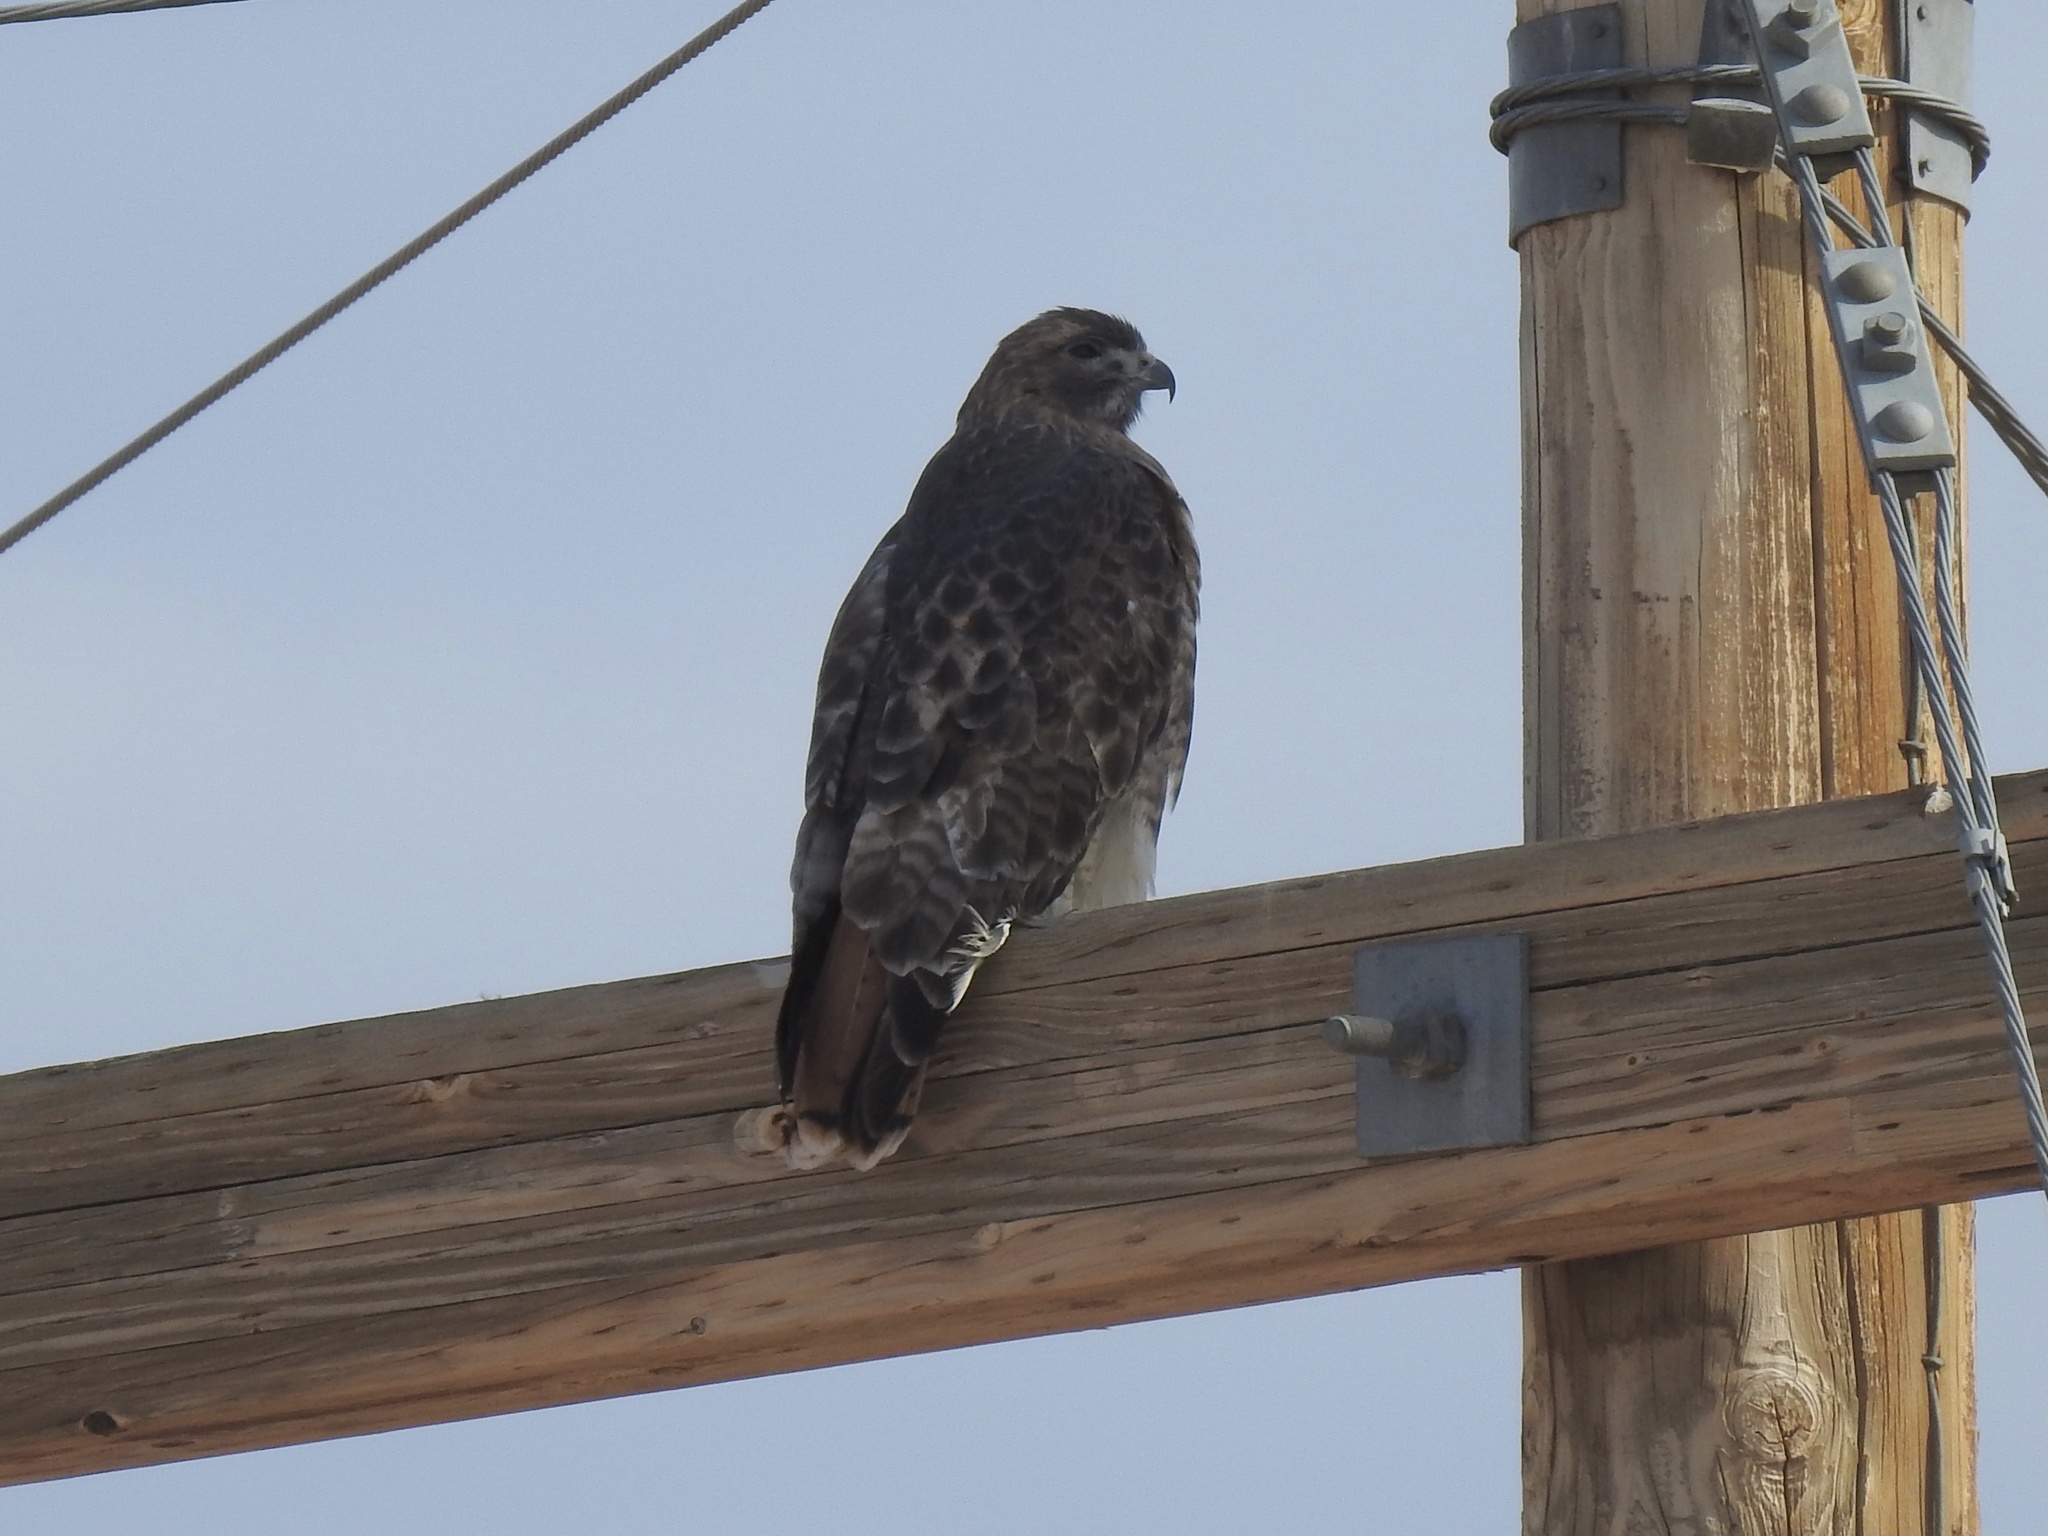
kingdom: Animalia
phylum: Chordata
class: Aves
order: Accipitriformes
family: Accipitridae
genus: Buteo
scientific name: Buteo jamaicensis
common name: Red-tailed hawk
